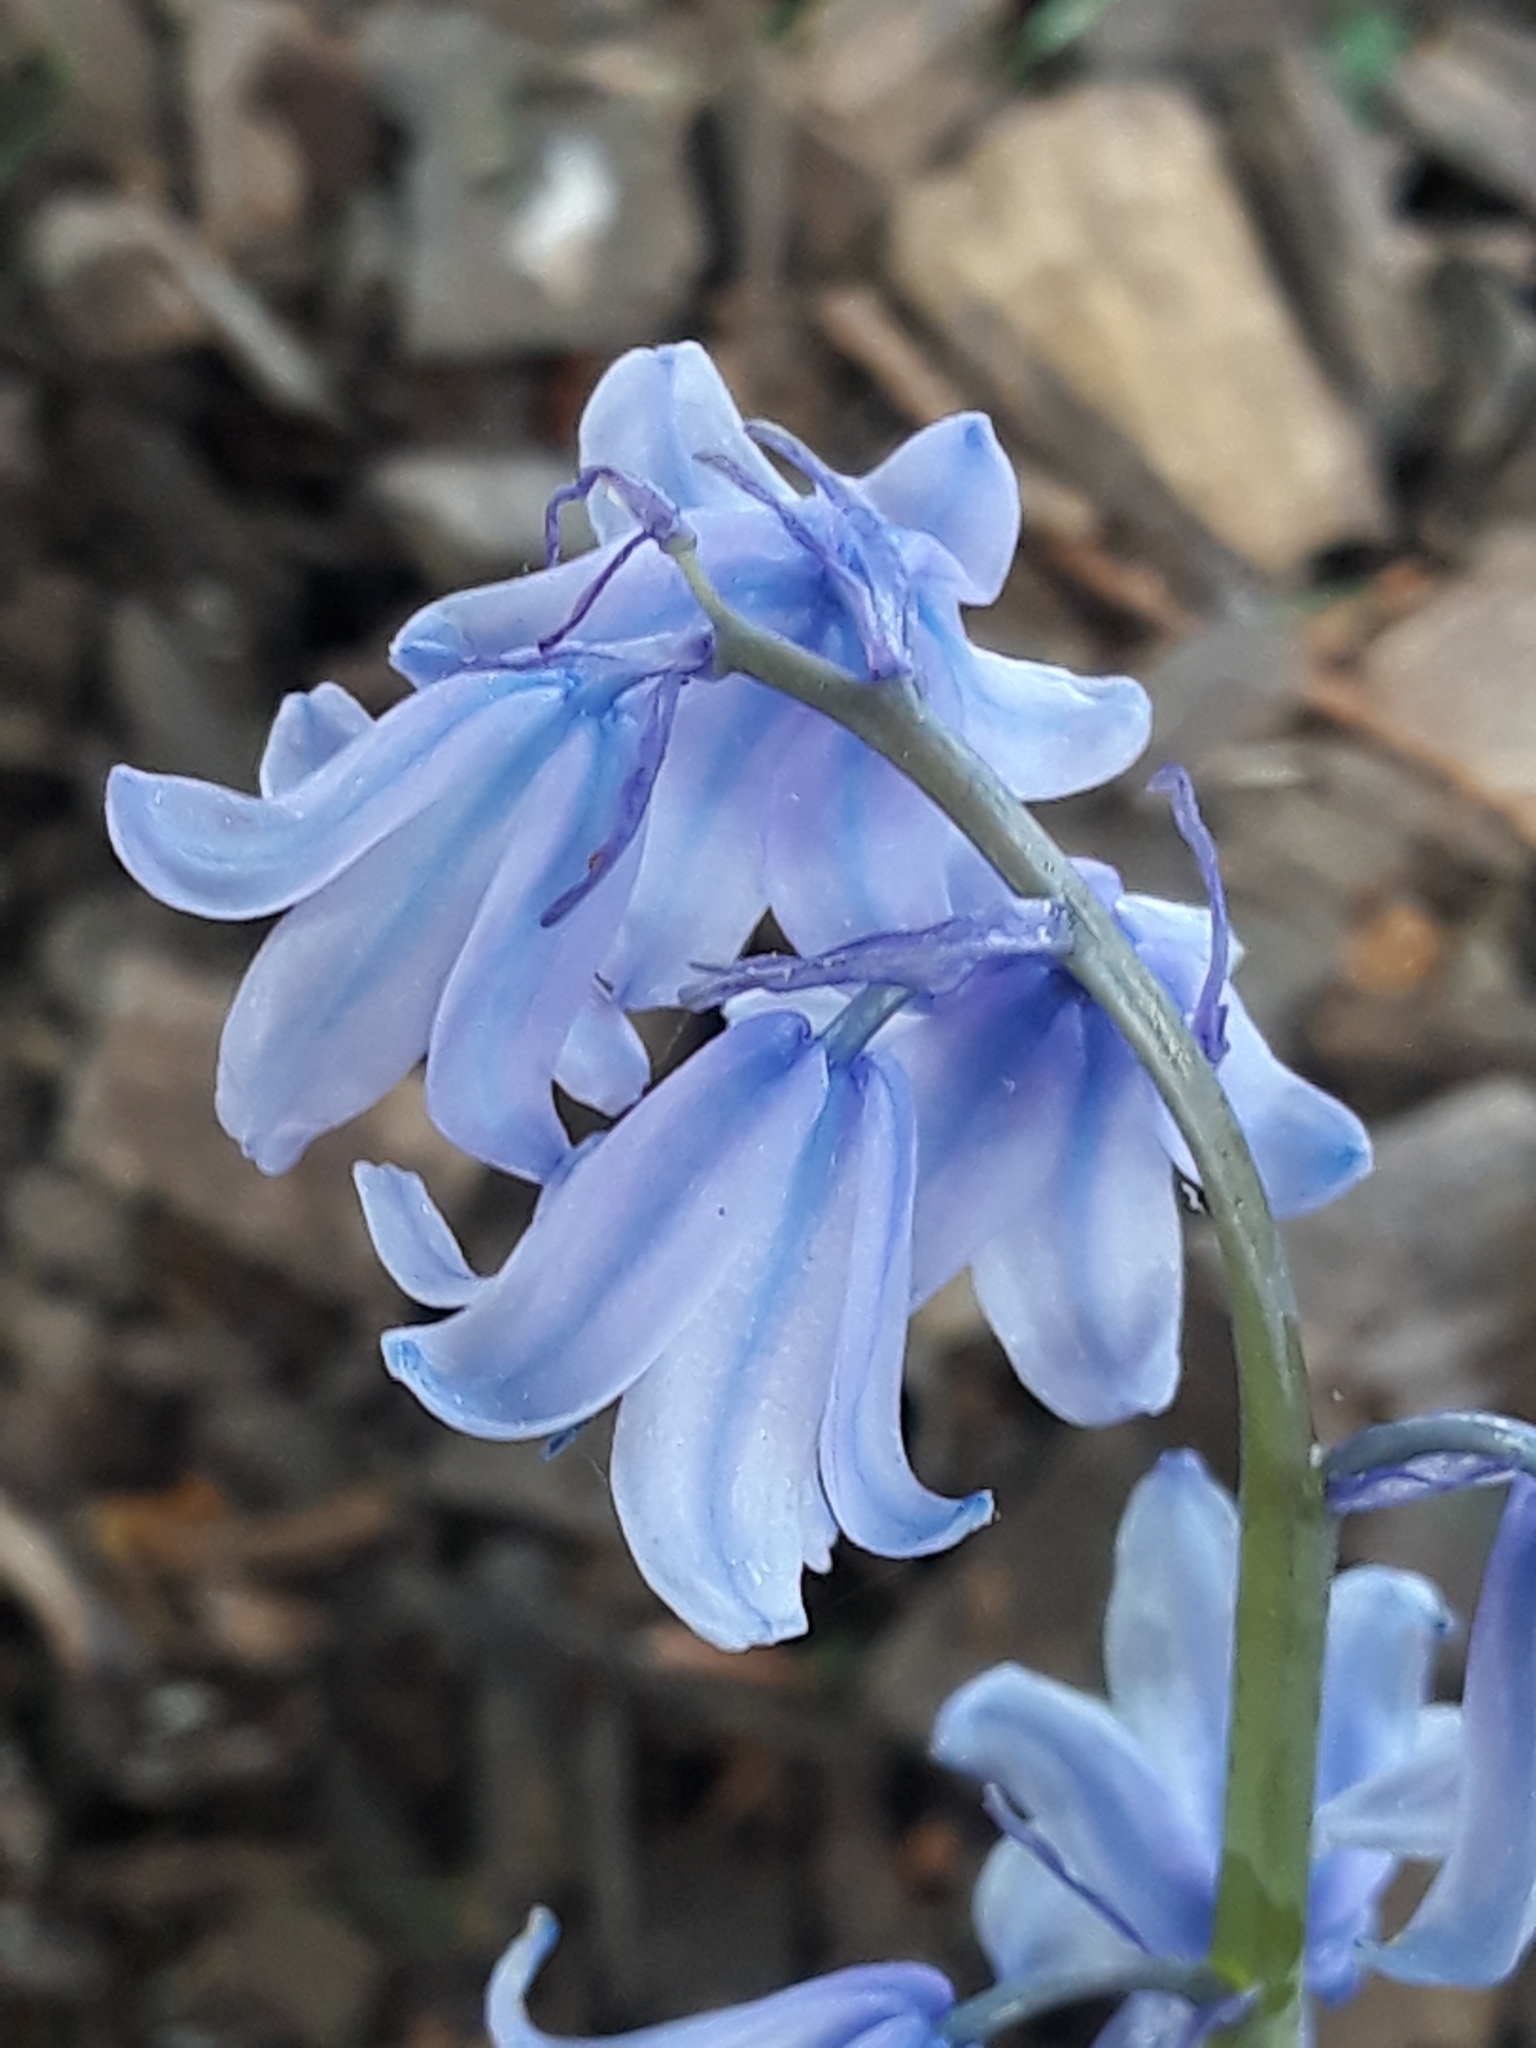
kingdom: Plantae
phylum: Tracheophyta
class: Liliopsida
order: Asparagales
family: Asparagaceae
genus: Hyacinthoides
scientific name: Hyacinthoides hispanica
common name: Spanish bluebell
